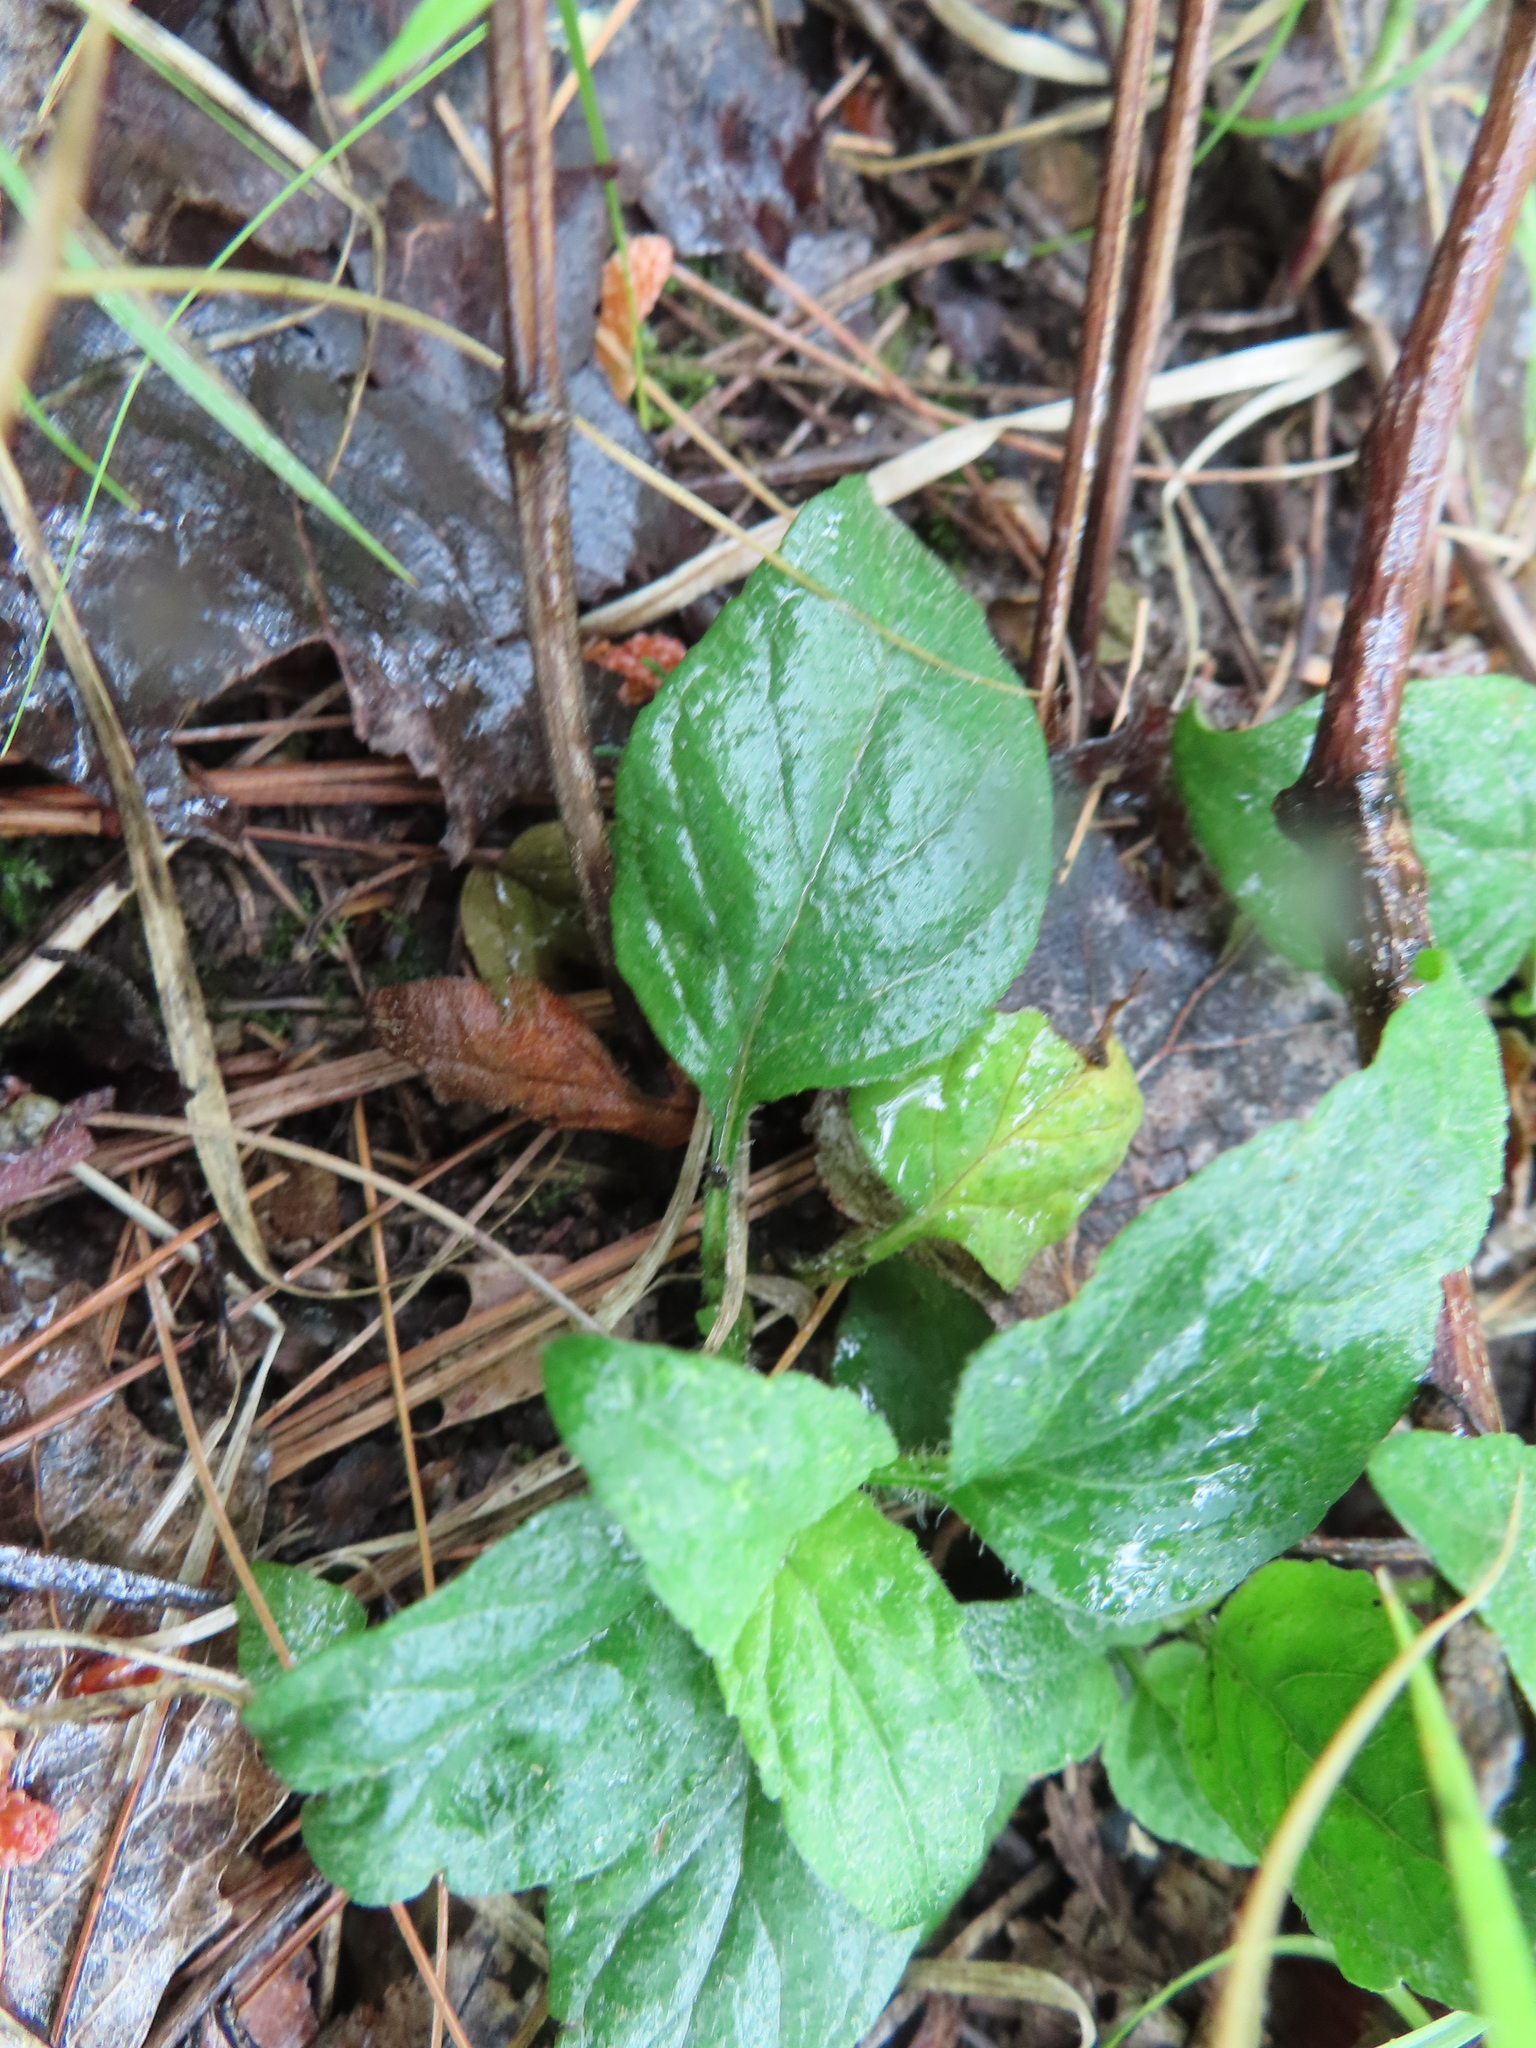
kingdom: Plantae
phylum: Tracheophyta
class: Magnoliopsida
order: Lamiales
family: Lamiaceae
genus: Prunella
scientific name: Prunella vulgaris
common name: Heal-all
